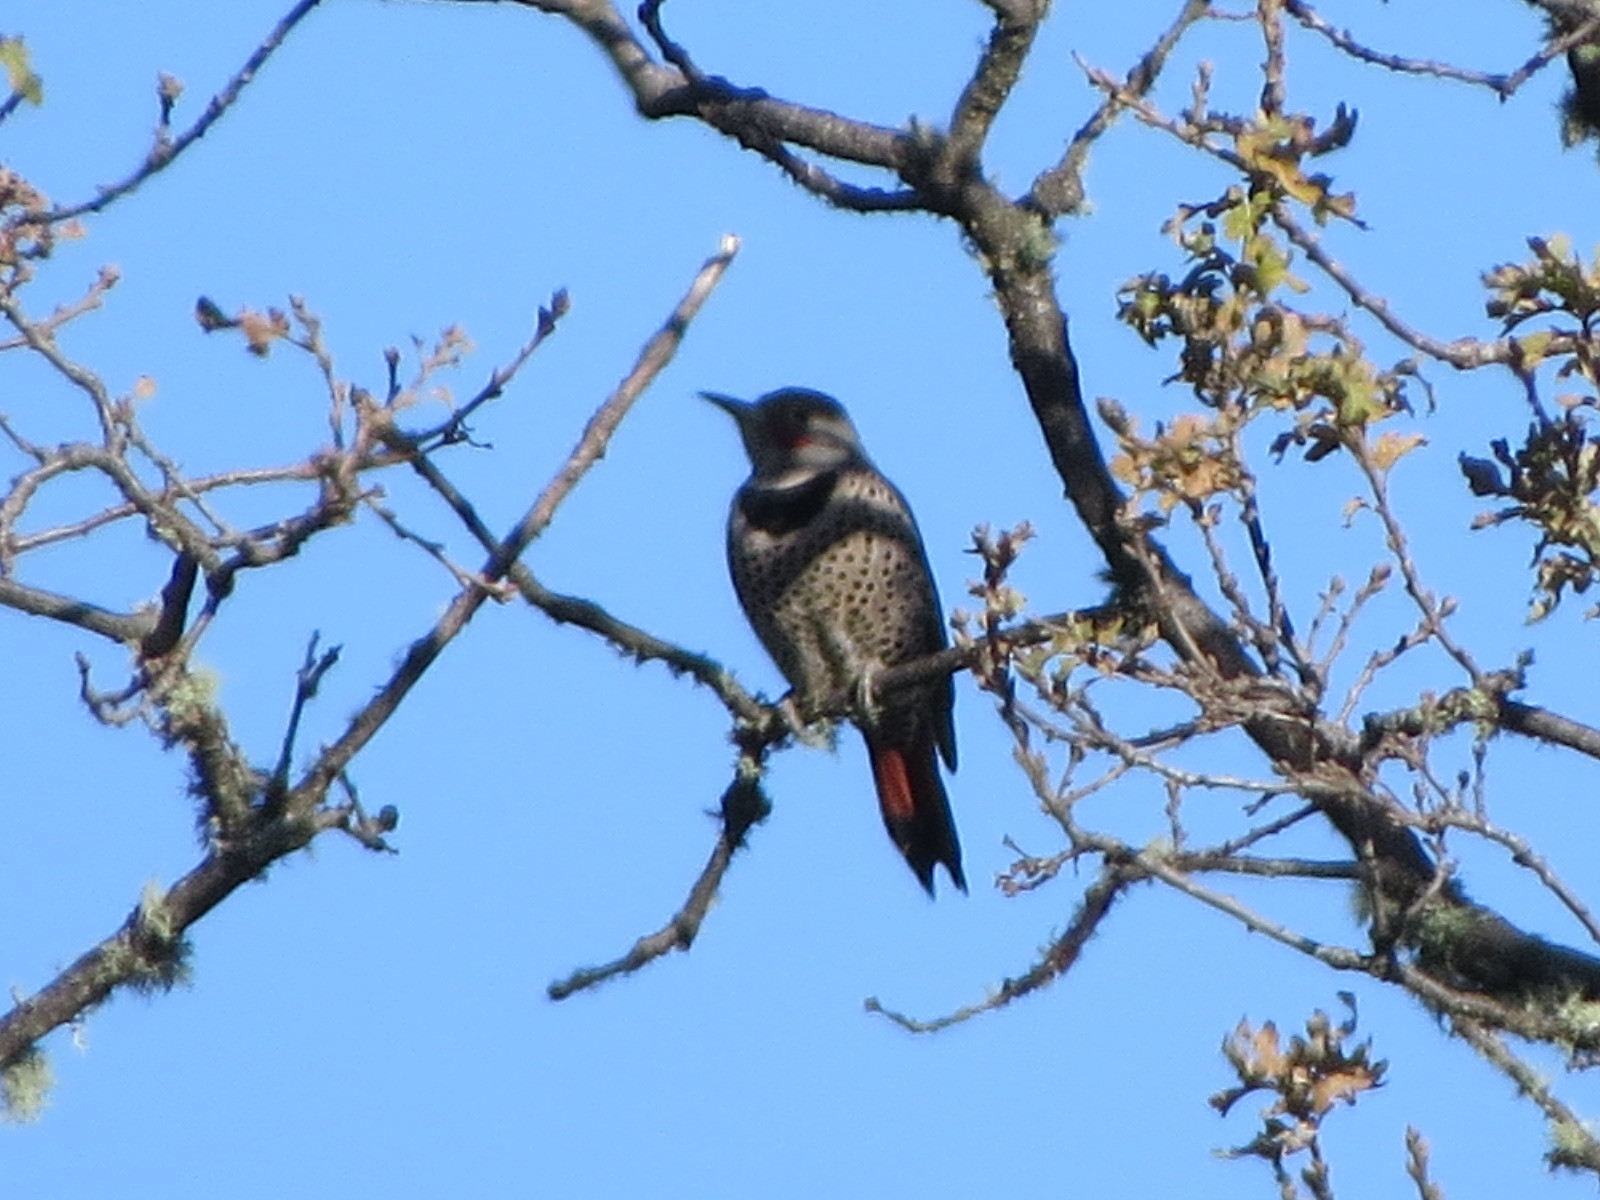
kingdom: Animalia
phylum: Chordata
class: Aves
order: Piciformes
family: Picidae
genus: Colaptes
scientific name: Colaptes auratus
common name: Northern flicker
